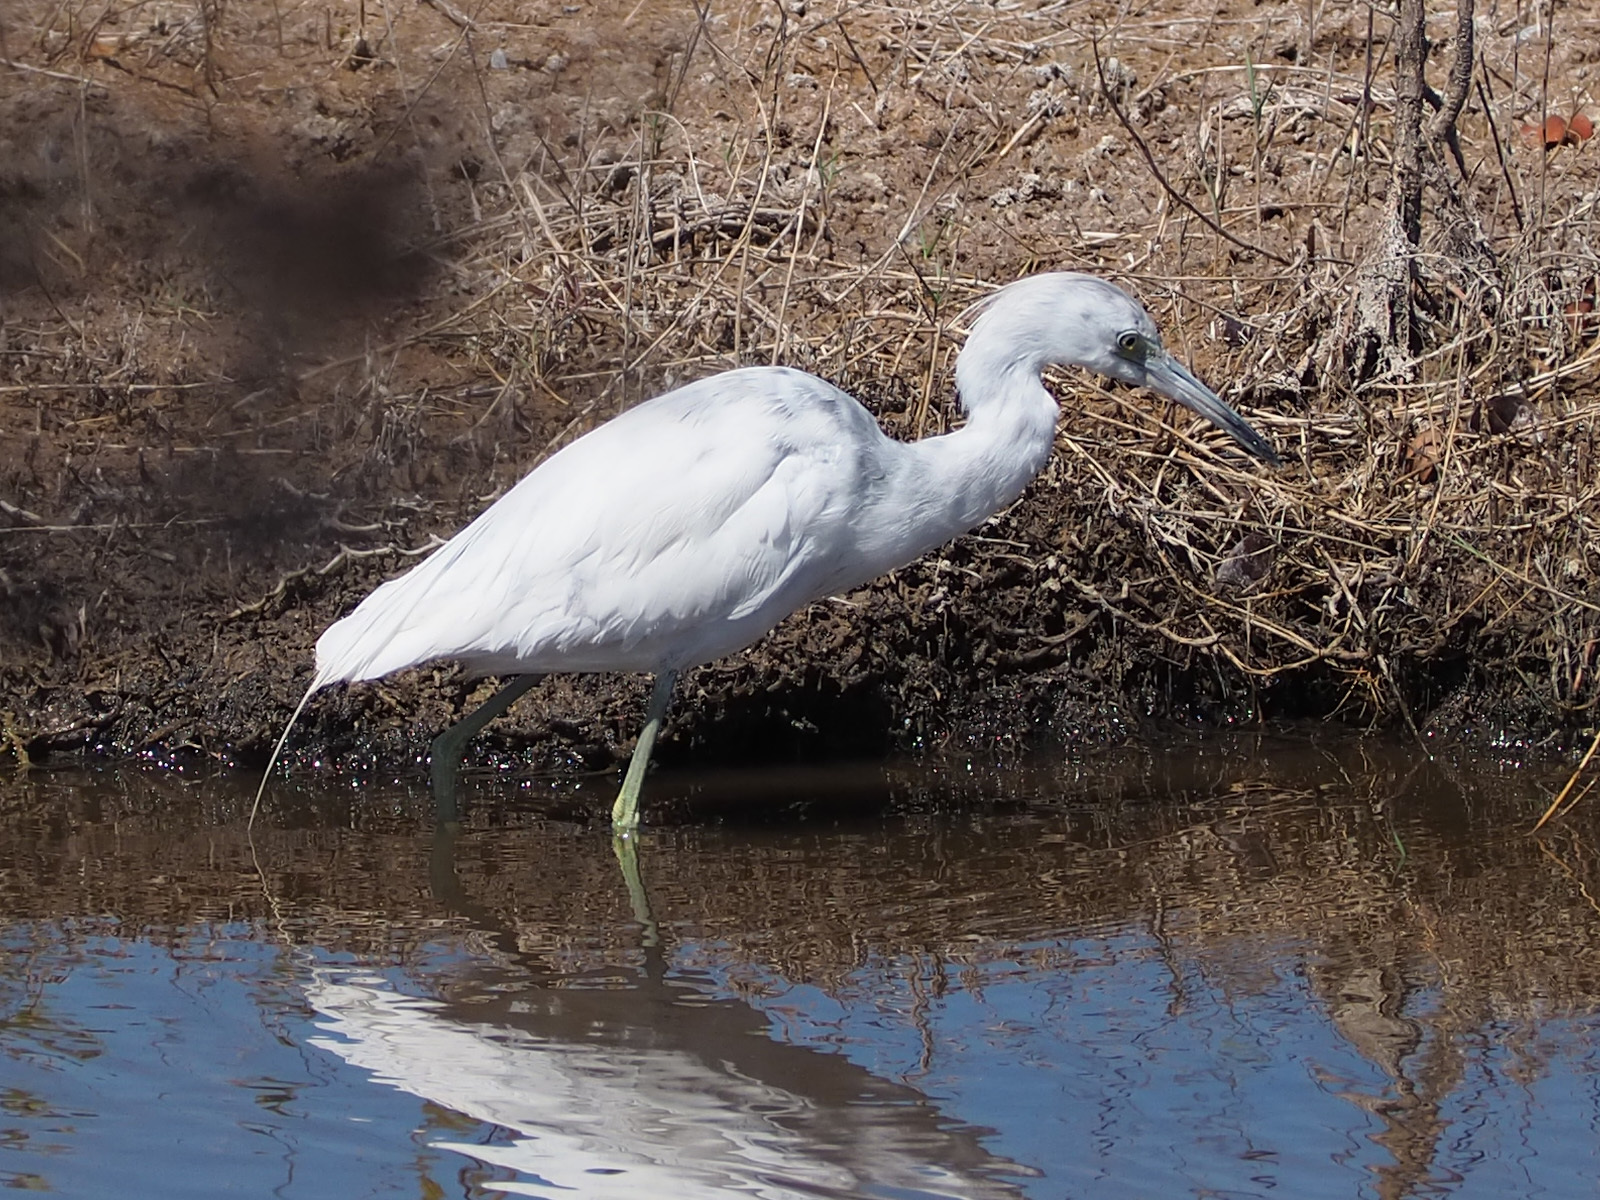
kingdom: Animalia
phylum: Chordata
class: Aves
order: Pelecaniformes
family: Ardeidae
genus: Egretta
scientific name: Egretta caerulea
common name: Little blue heron
